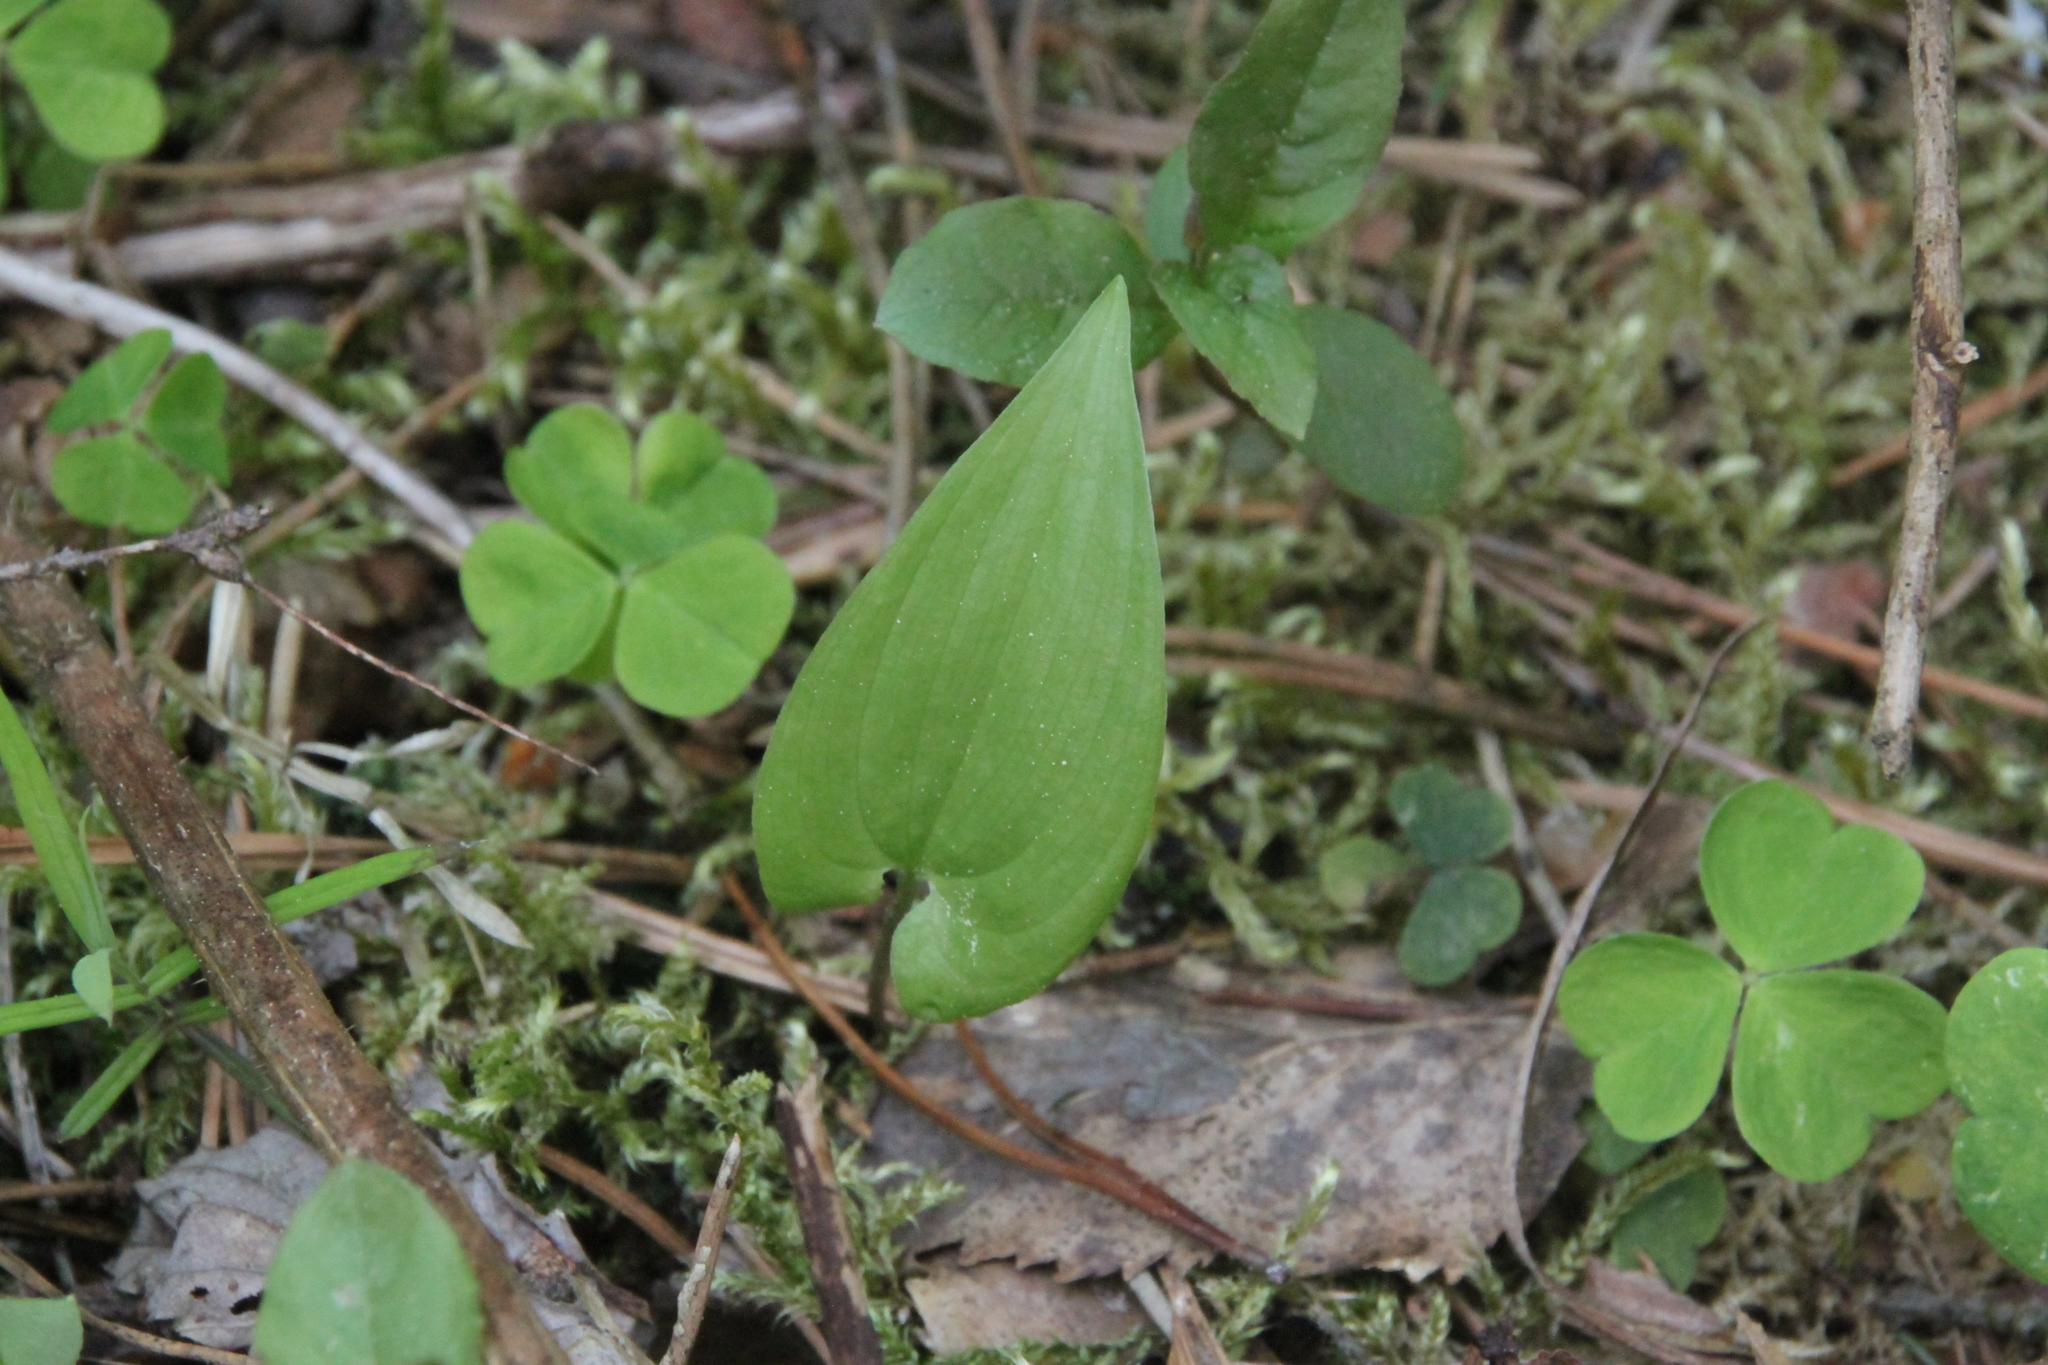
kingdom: Plantae
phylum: Tracheophyta
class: Liliopsida
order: Asparagales
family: Asparagaceae
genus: Maianthemum
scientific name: Maianthemum bifolium
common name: May lily
